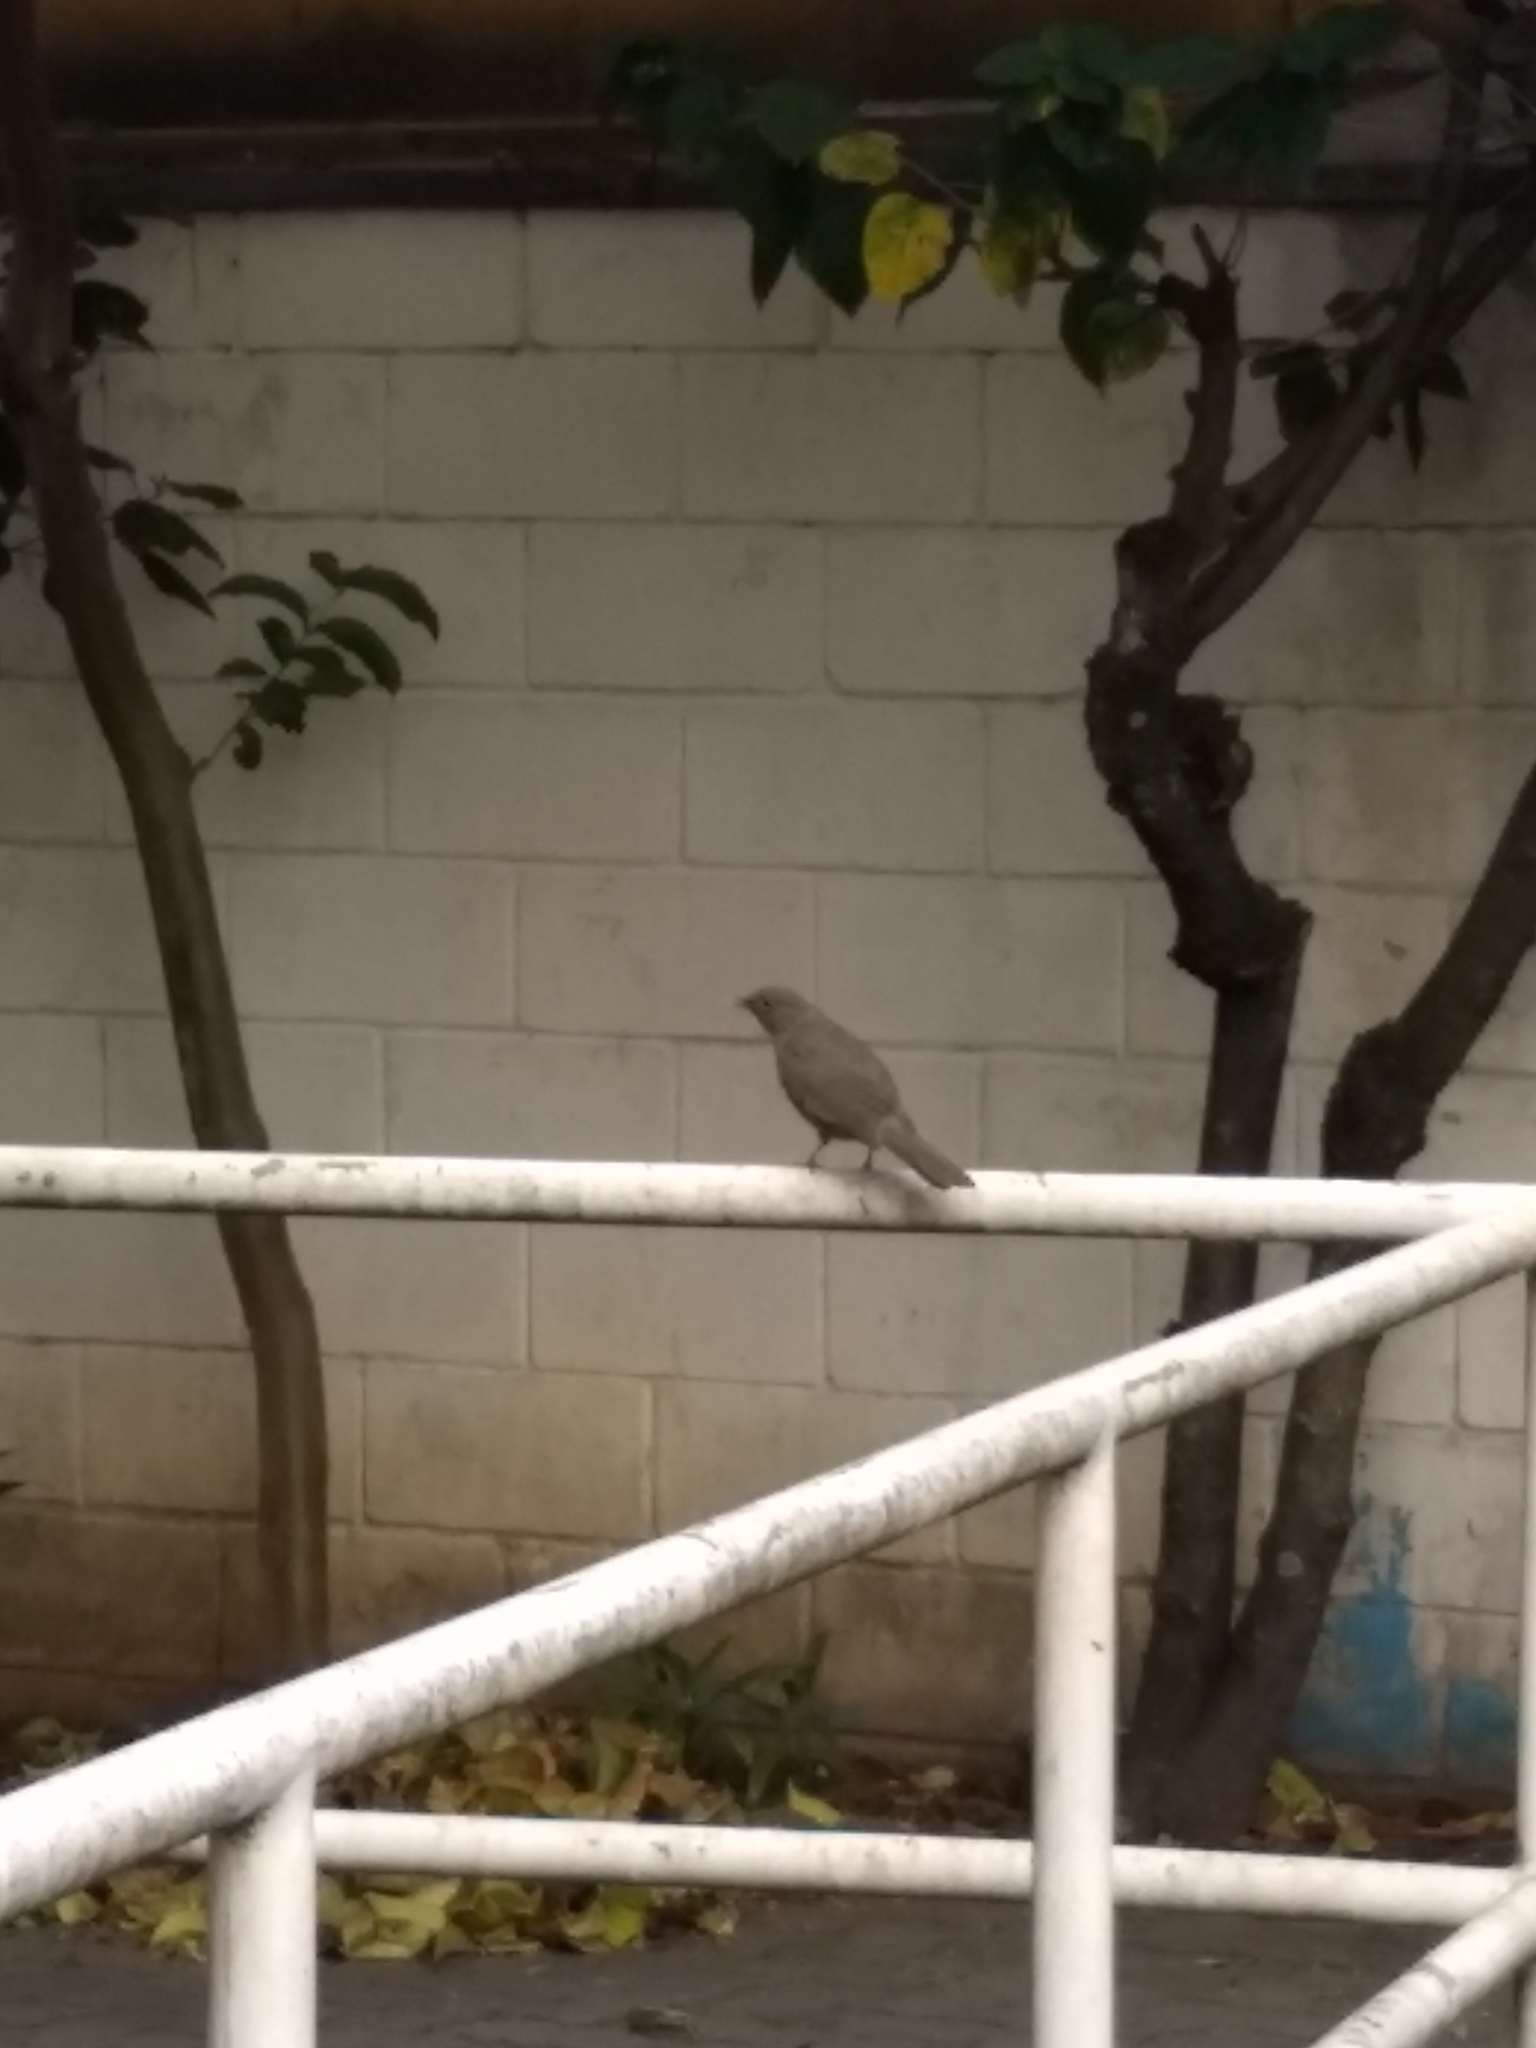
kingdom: Animalia
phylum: Chordata
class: Aves
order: Passeriformes
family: Turdidae
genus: Turdus
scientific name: Turdus rufiventris
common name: Rufous-bellied thrush
